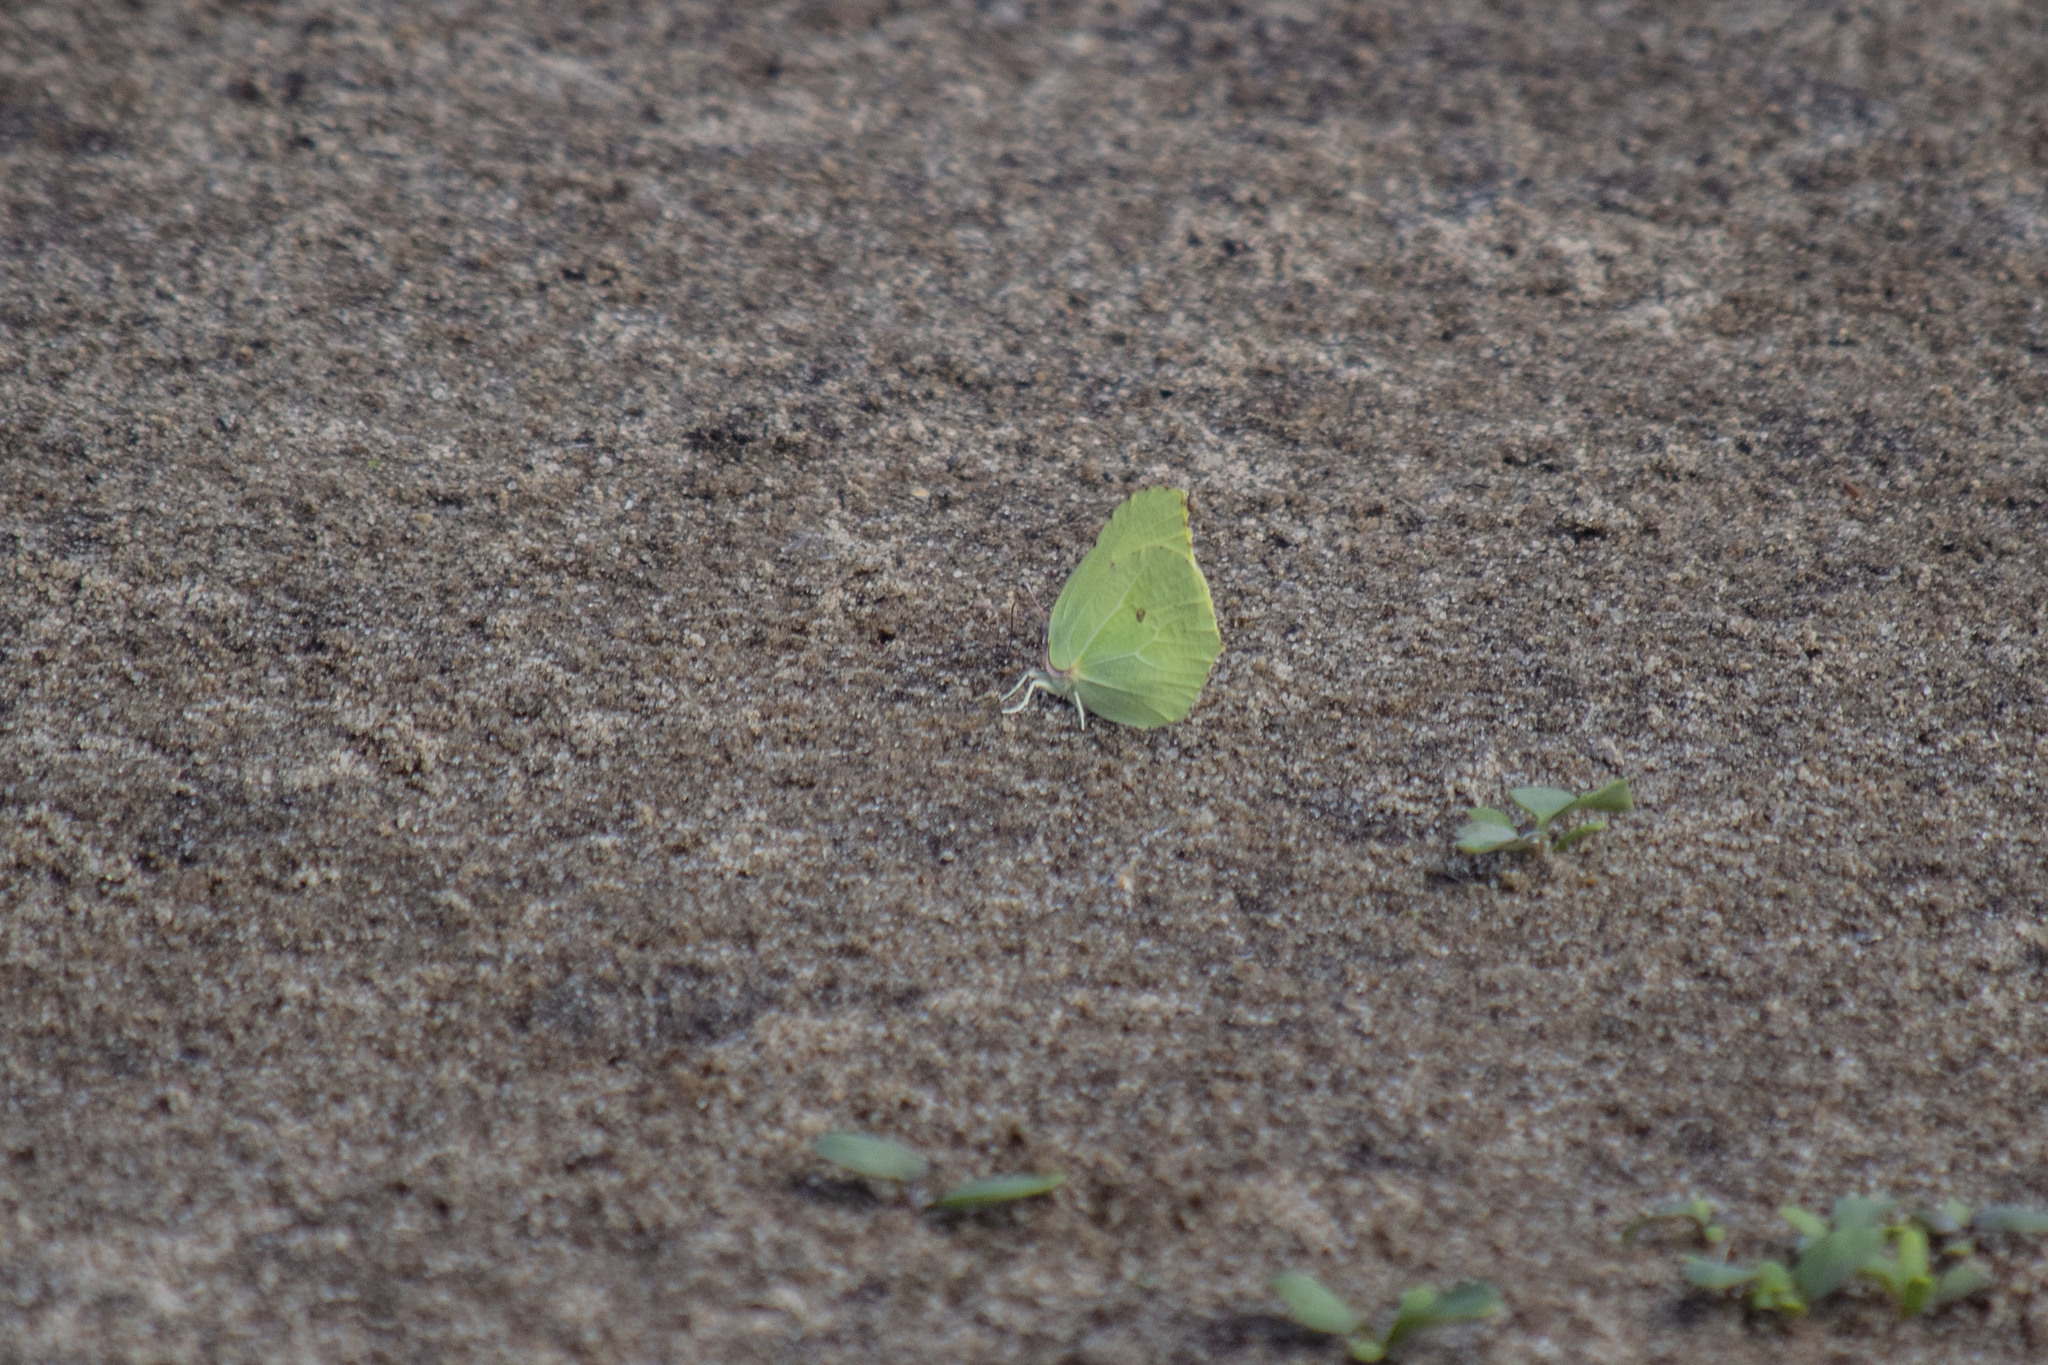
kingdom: Animalia
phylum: Arthropoda
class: Insecta
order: Lepidoptera
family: Pieridae
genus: Gonepteryx
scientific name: Gonepteryx rhamni
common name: Brimstone
